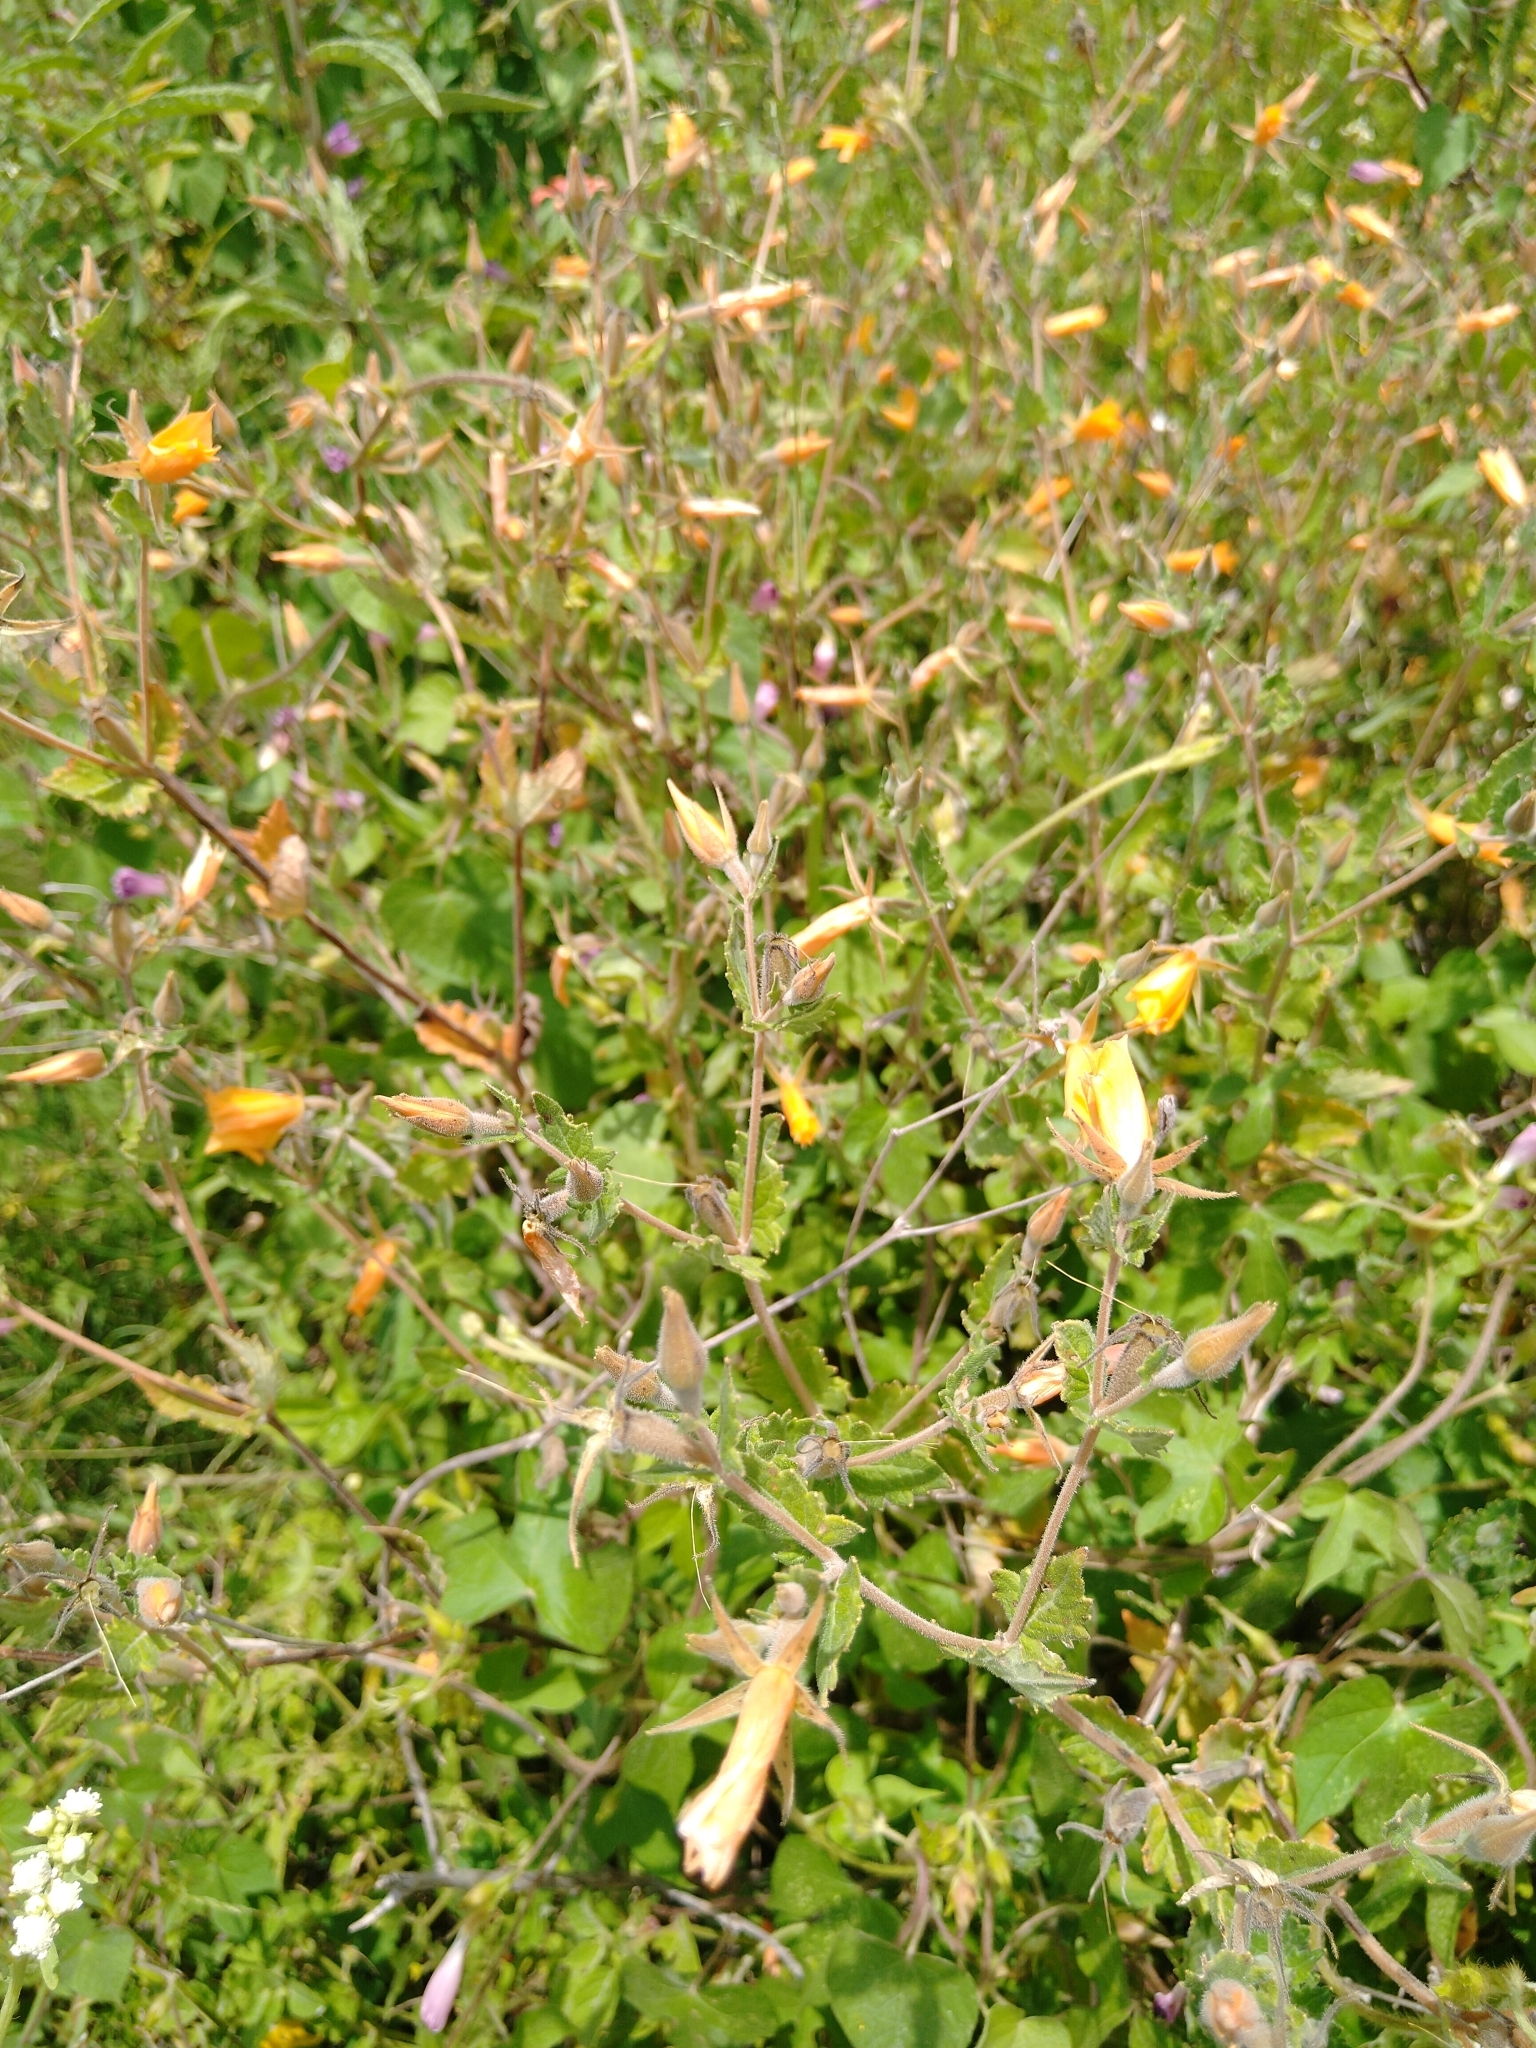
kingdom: Plantae
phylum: Tracheophyta
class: Magnoliopsida
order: Cornales
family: Loasaceae
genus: Mentzelia
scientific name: Mentzelia hispida
